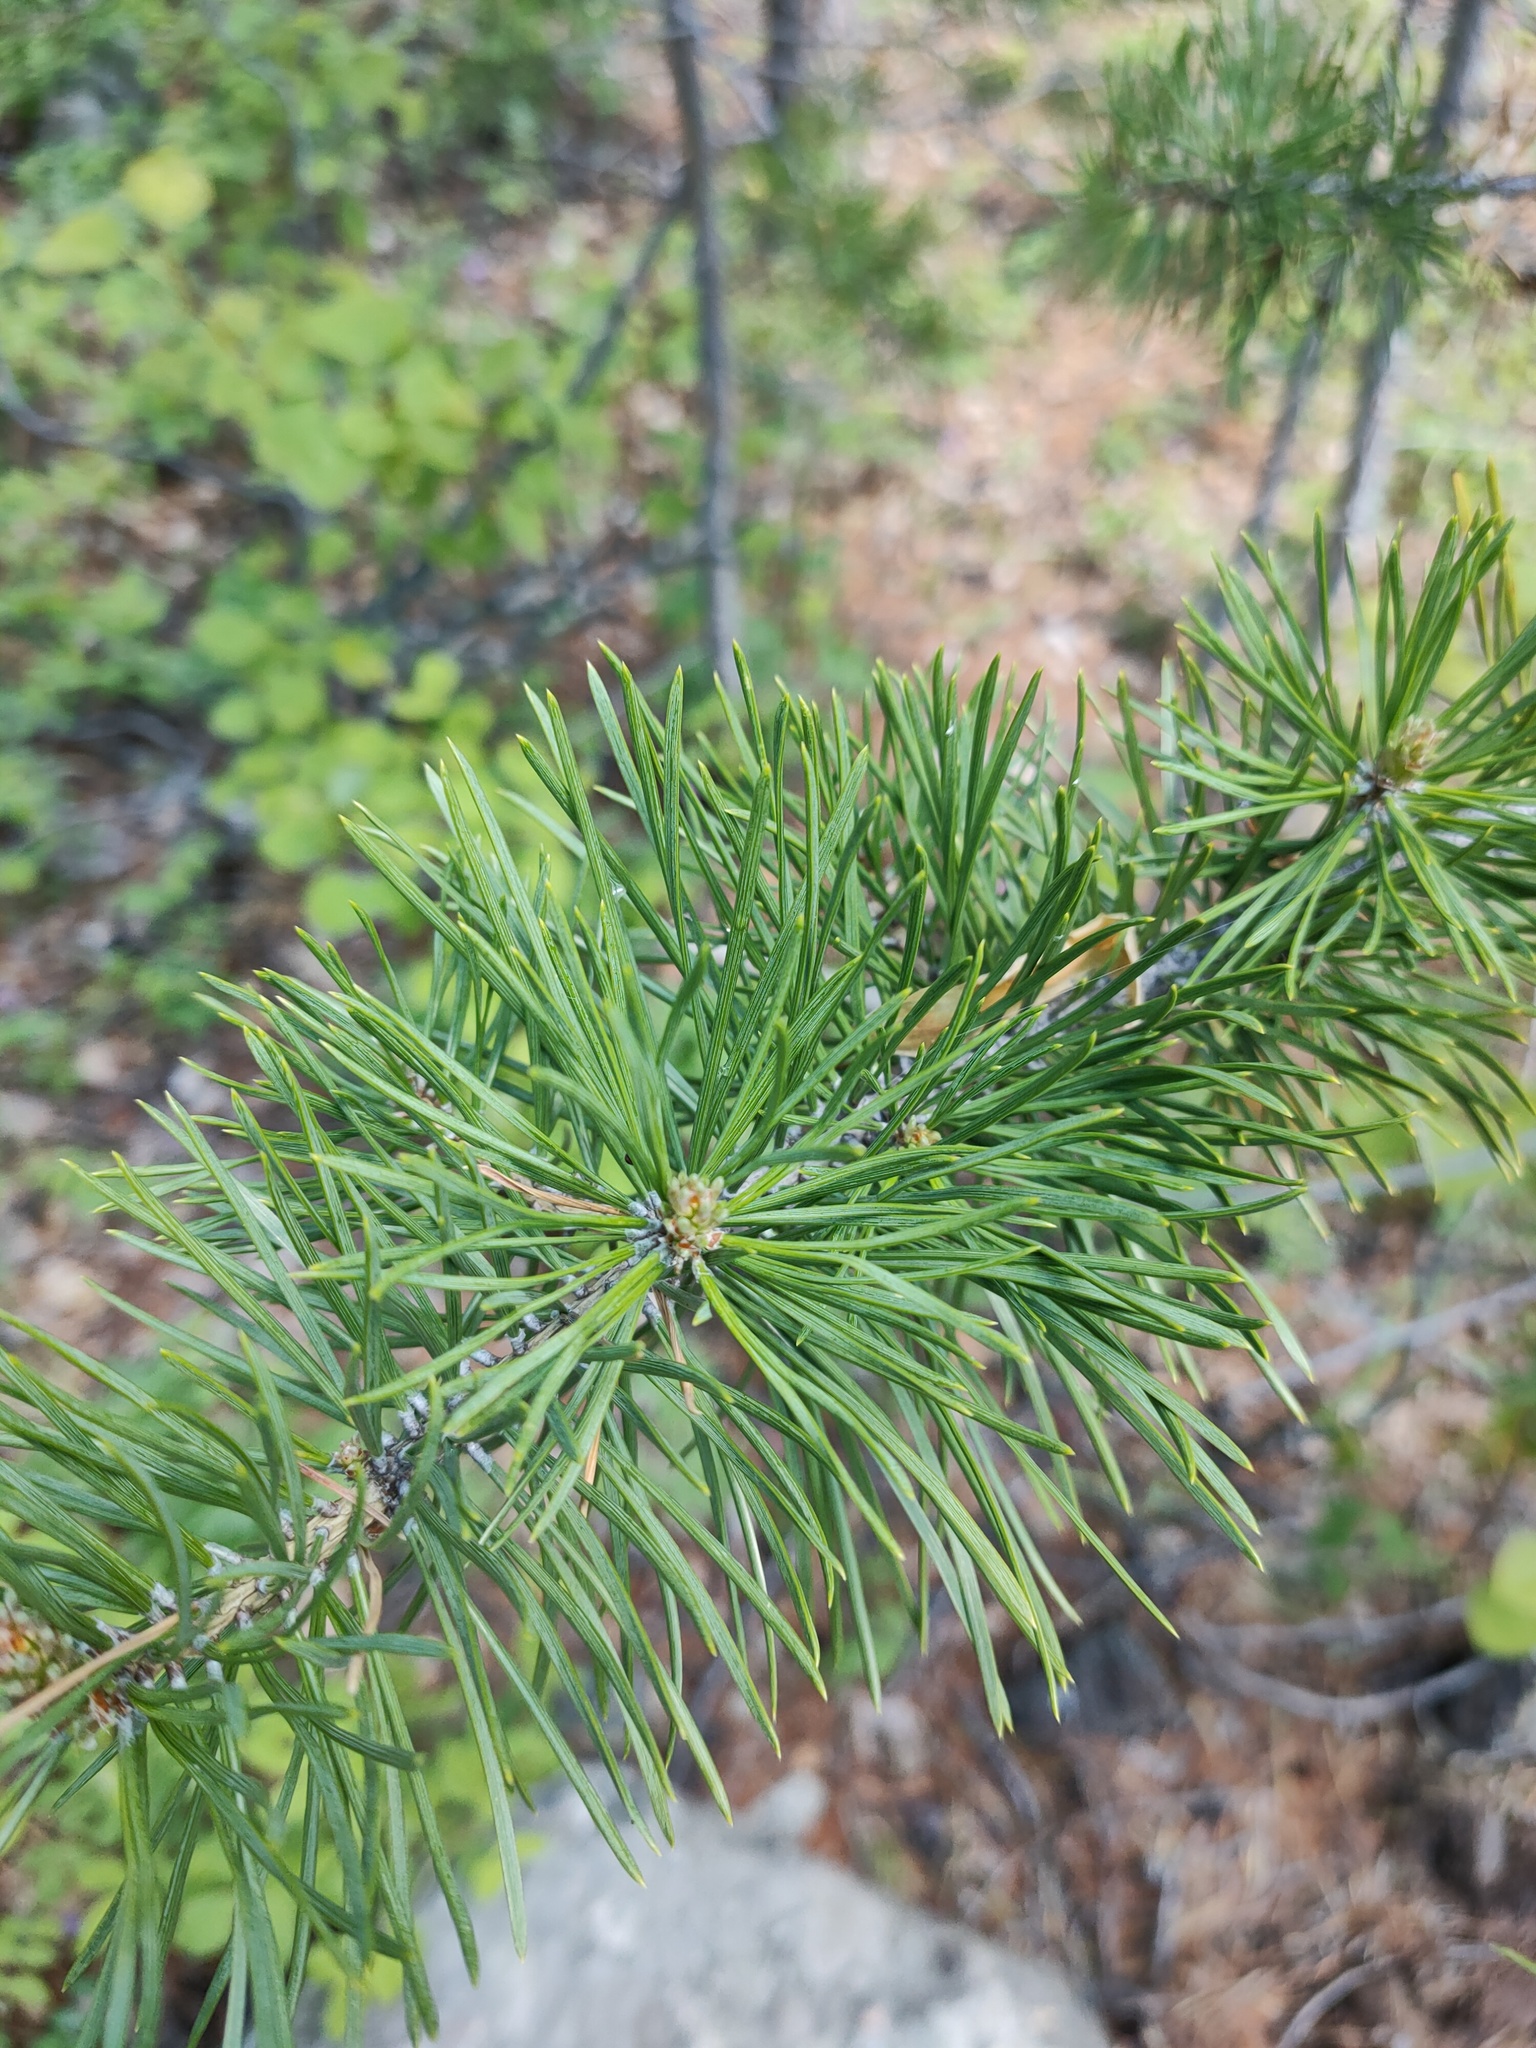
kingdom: Plantae
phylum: Tracheophyta
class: Pinopsida
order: Pinales
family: Pinaceae
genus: Pinus
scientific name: Pinus sylvestris
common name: Scots pine
